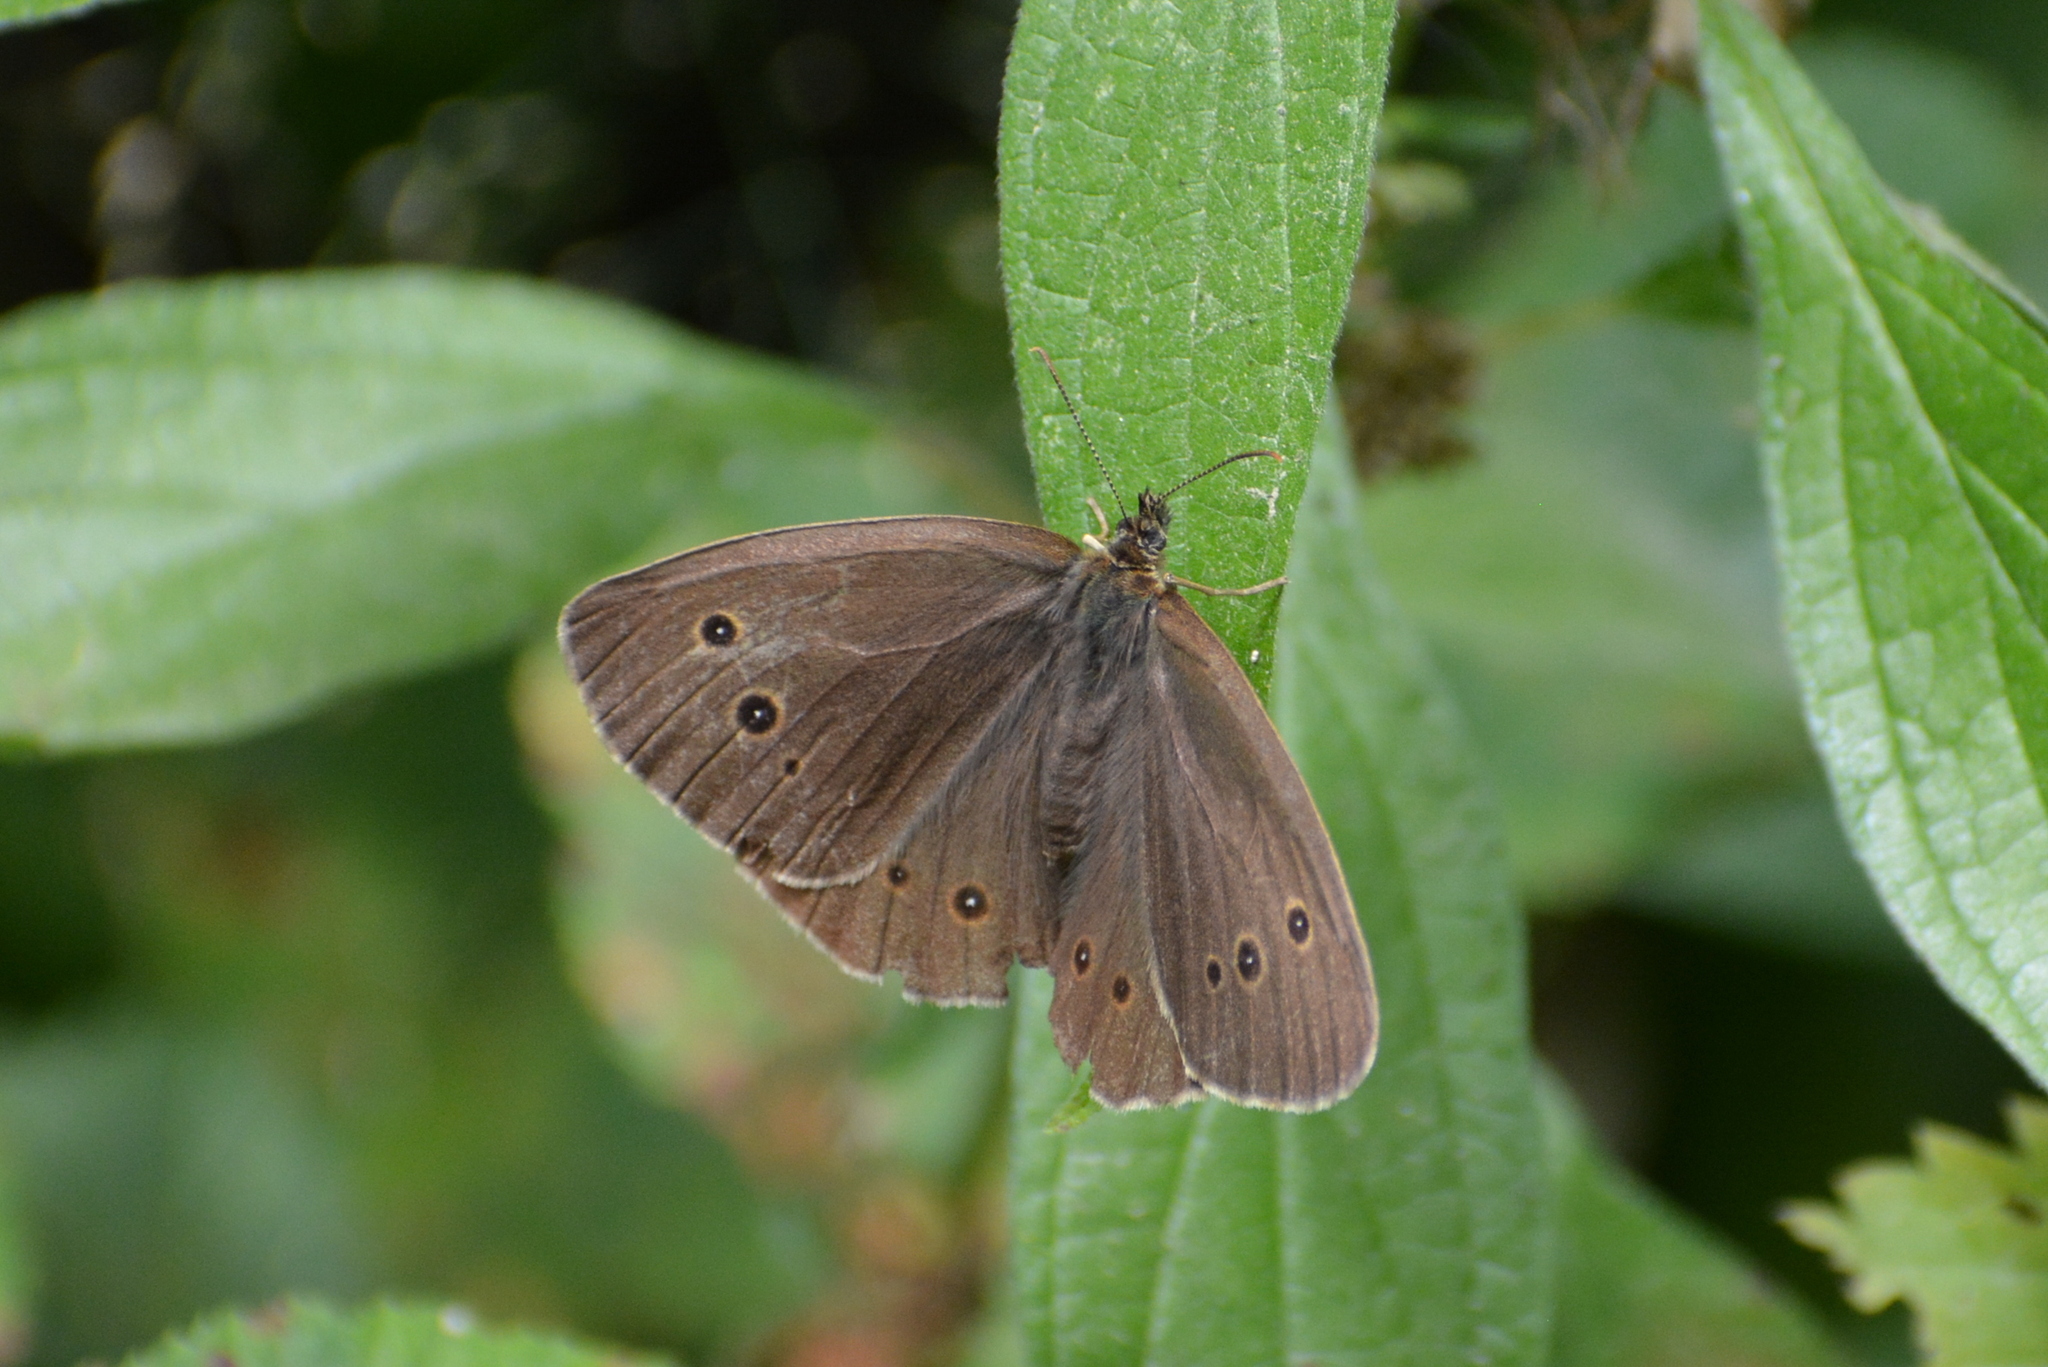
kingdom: Animalia
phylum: Arthropoda
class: Insecta
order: Lepidoptera
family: Nymphalidae
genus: Aphantopus
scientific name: Aphantopus hyperantus
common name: Ringlet
